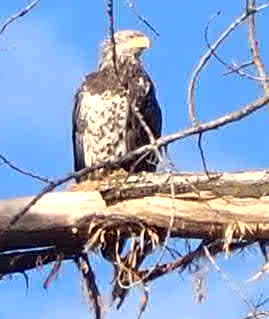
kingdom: Animalia
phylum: Chordata
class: Aves
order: Accipitriformes
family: Accipitridae
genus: Haliaeetus
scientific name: Haliaeetus leucocephalus
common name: Bald eagle
